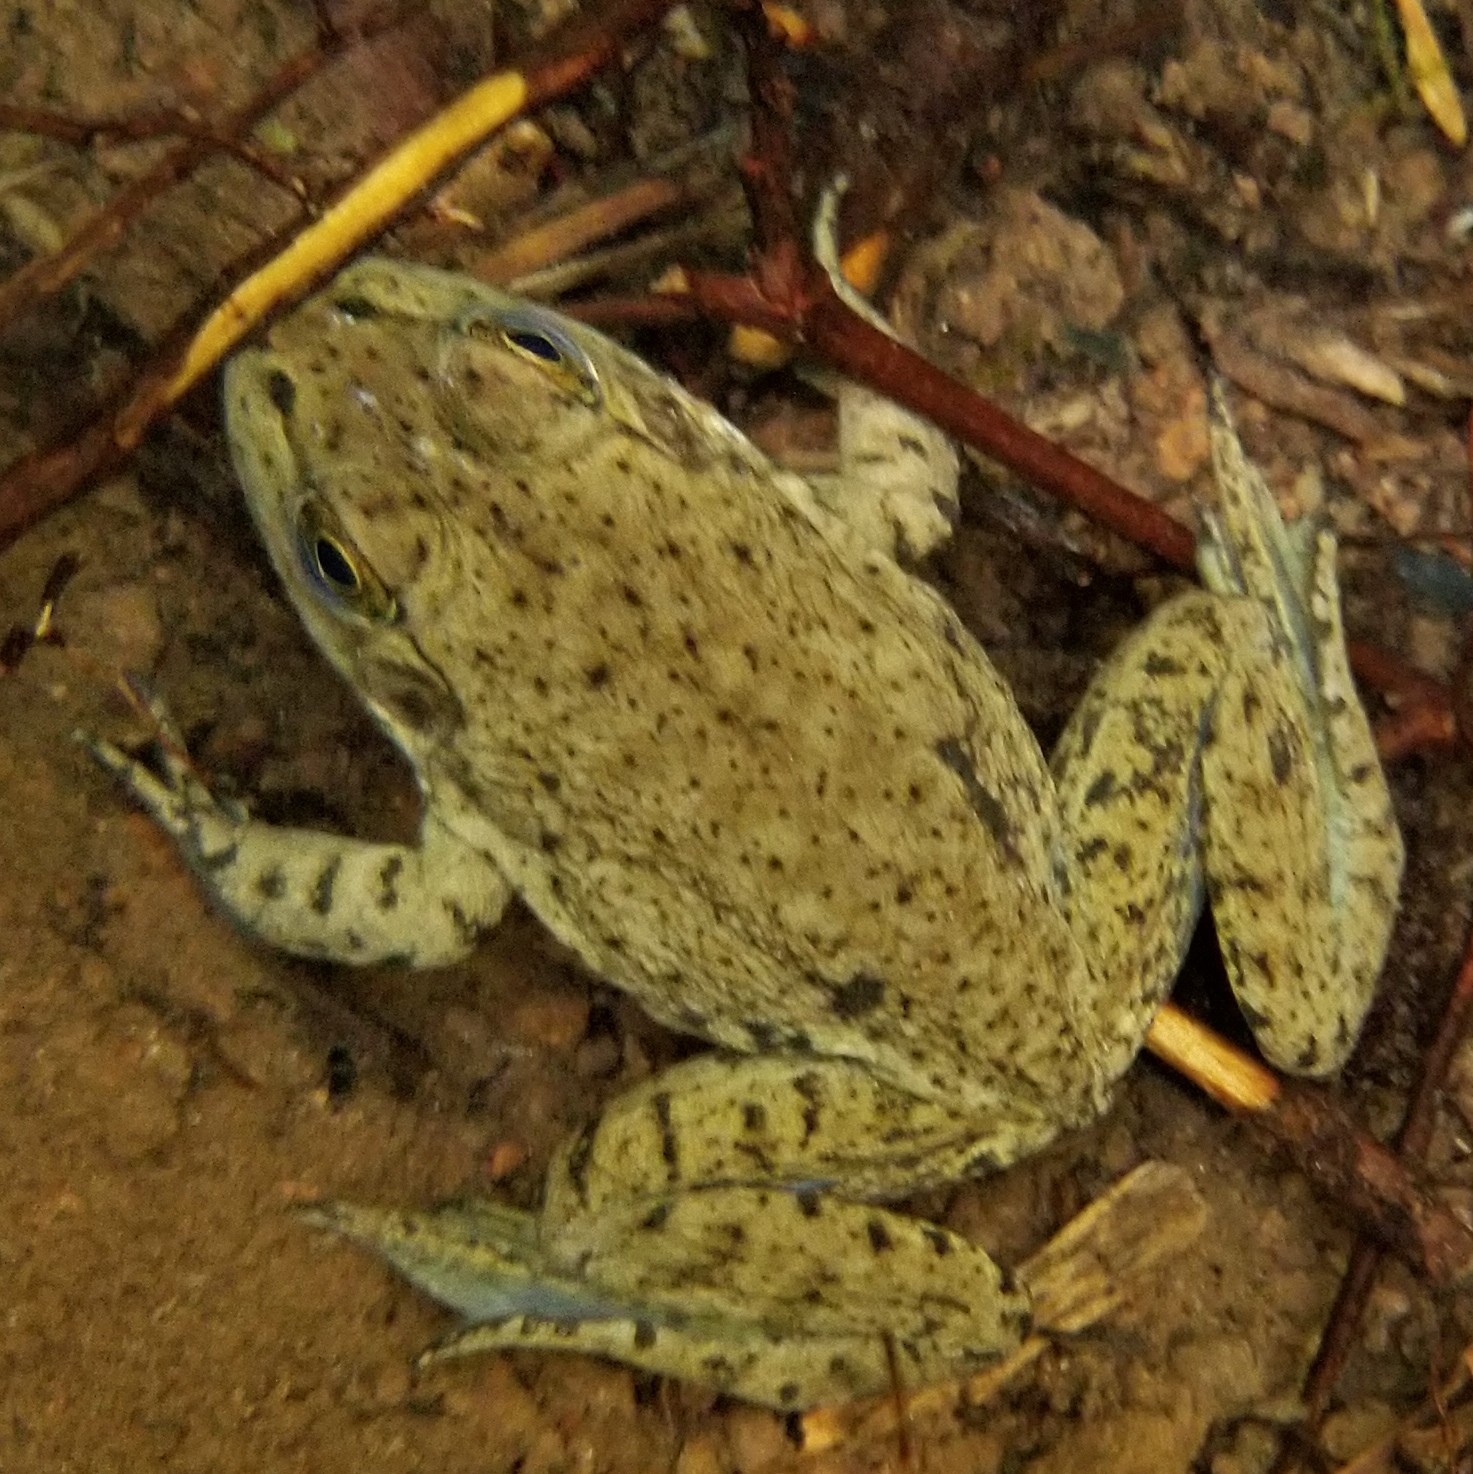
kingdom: Animalia
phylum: Chordata
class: Amphibia
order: Anura
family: Ranidae
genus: Lithobates
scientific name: Lithobates catesbeianus
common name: American bullfrog
